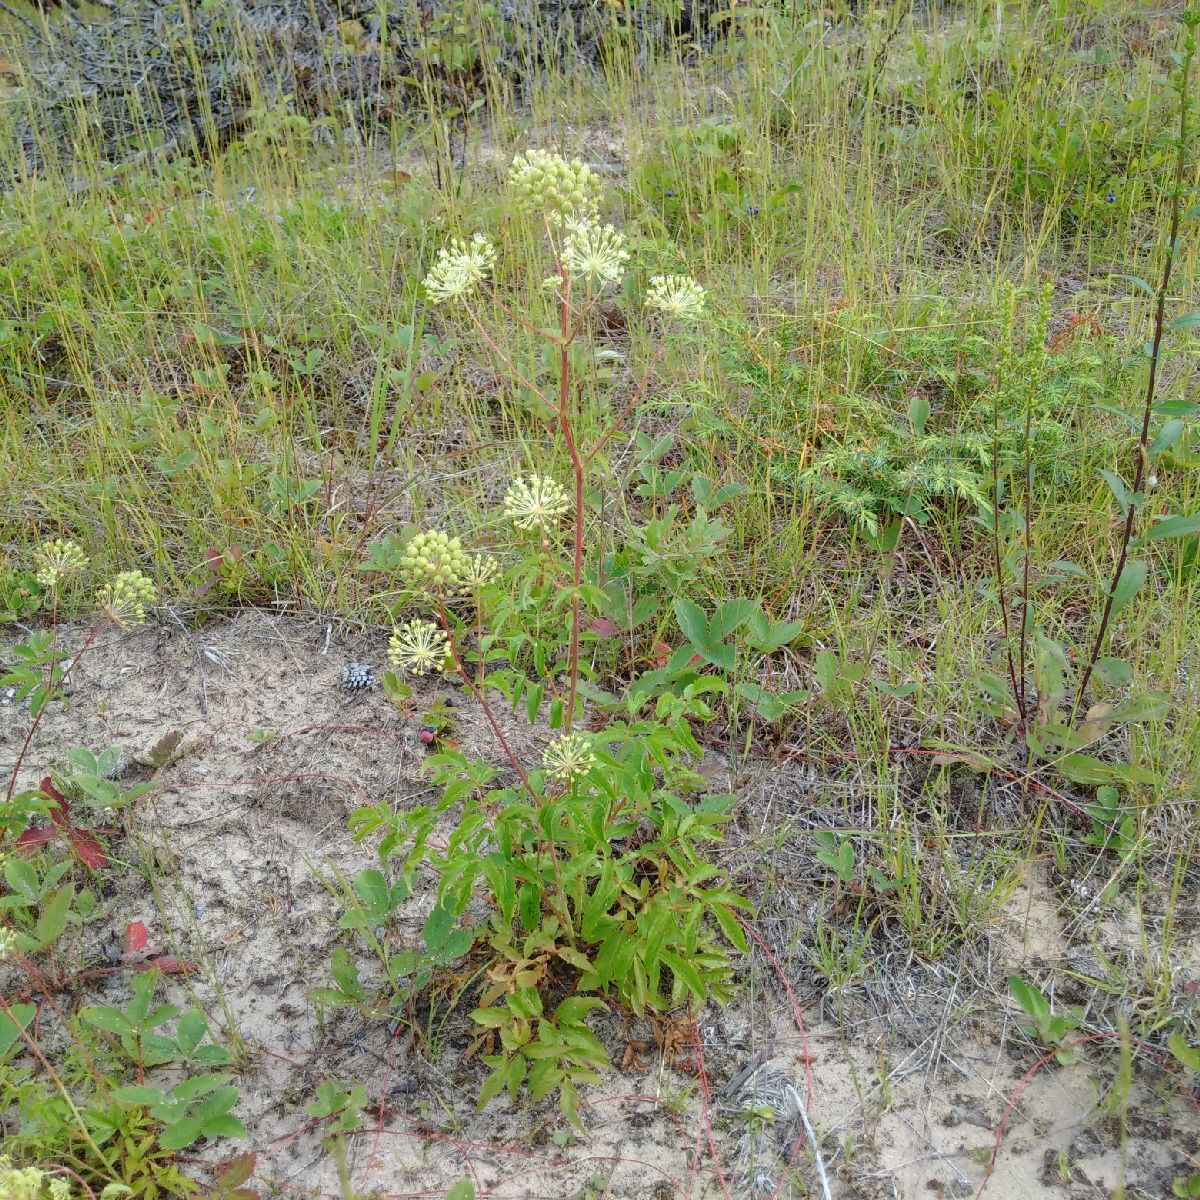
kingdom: Plantae
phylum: Tracheophyta
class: Magnoliopsida
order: Apiales
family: Araliaceae
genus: Aralia
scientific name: Aralia hispida
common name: Bristly sarsaparilla
